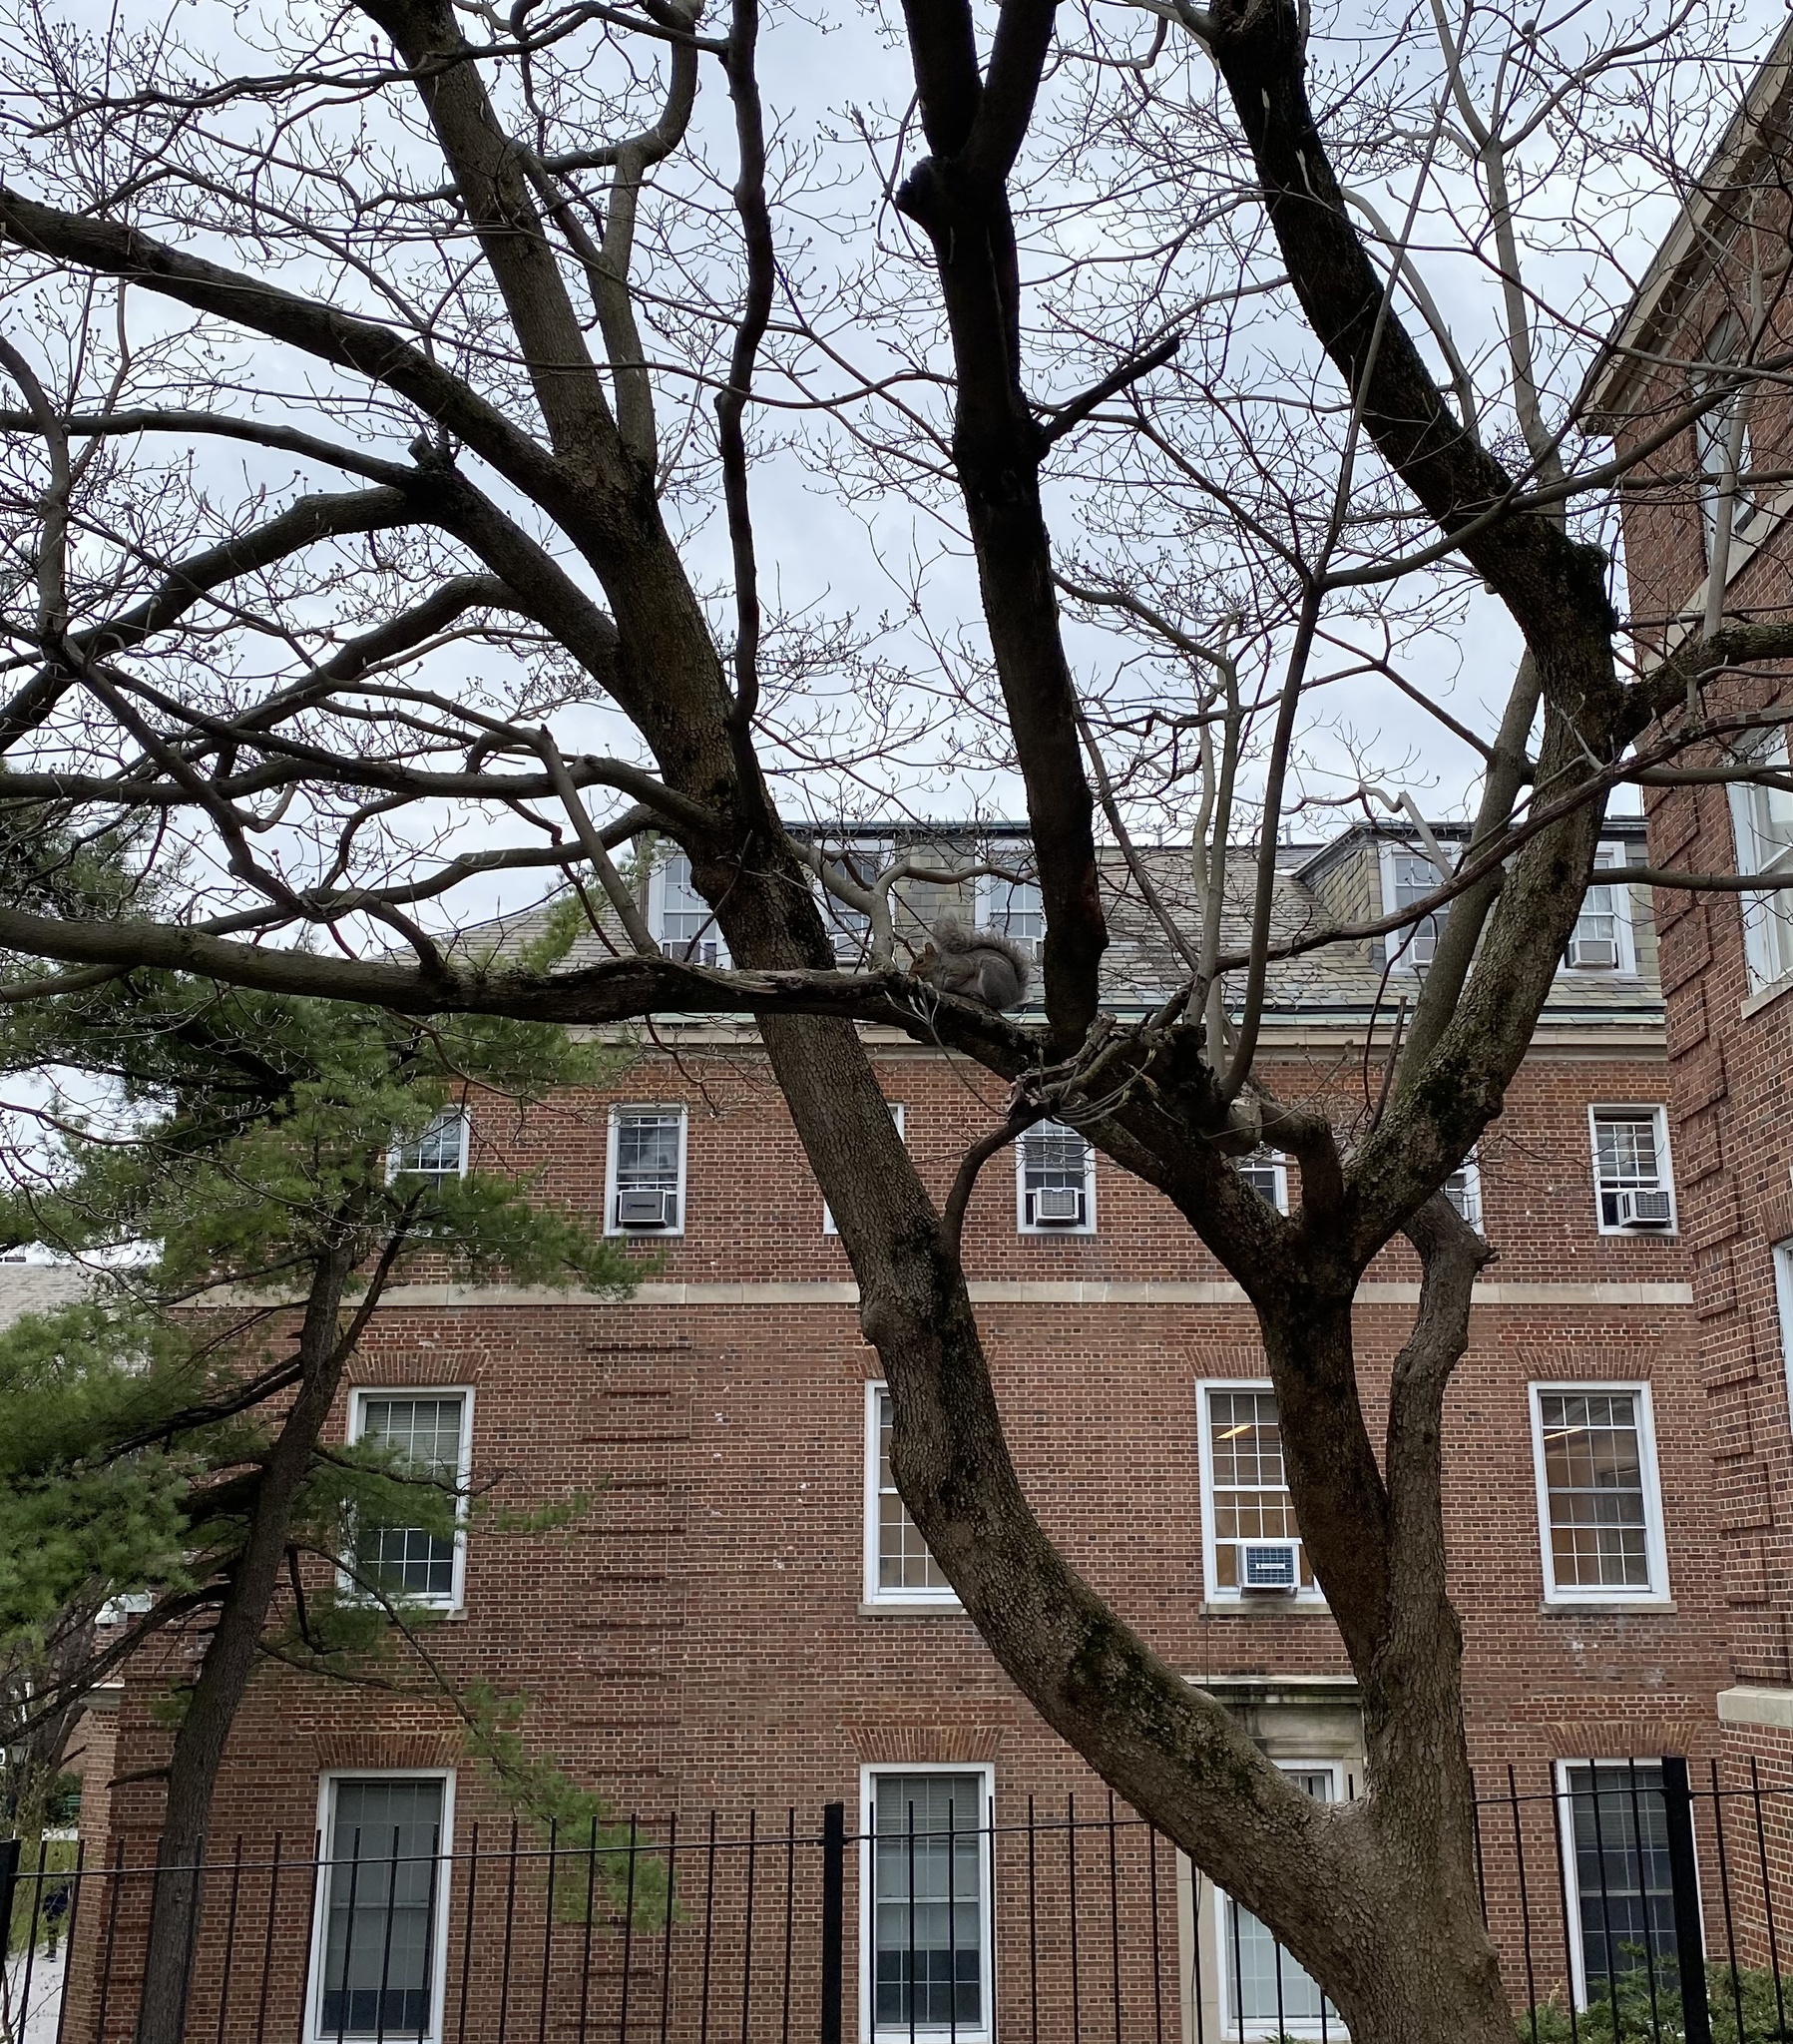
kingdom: Animalia
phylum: Chordata
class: Mammalia
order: Rodentia
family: Sciuridae
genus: Sciurus
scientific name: Sciurus carolinensis
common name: Eastern gray squirrel
